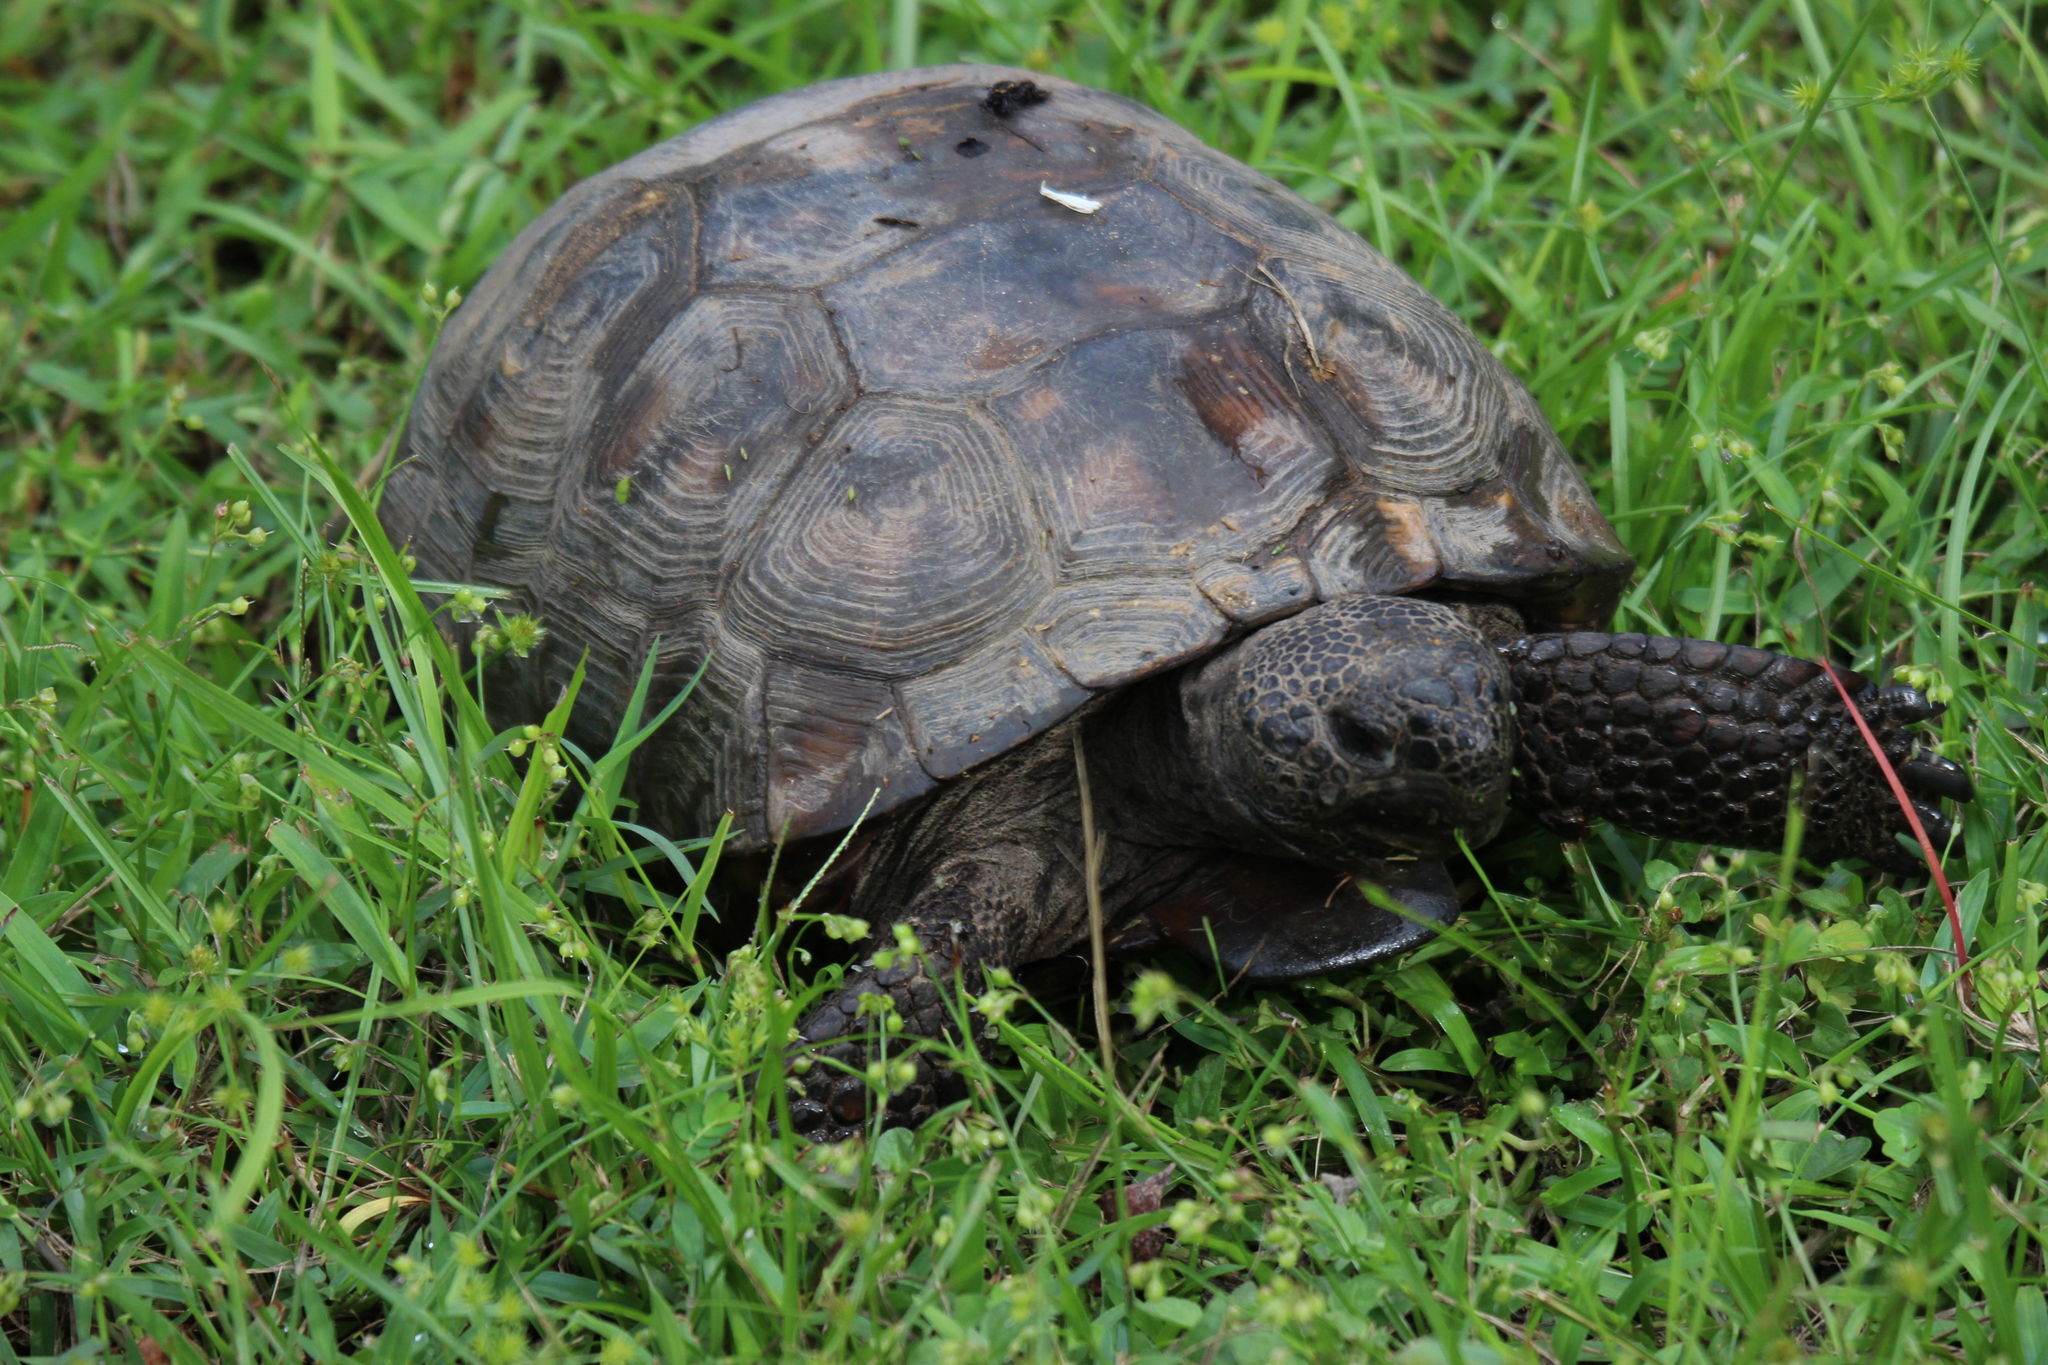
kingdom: Animalia
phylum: Chordata
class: Testudines
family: Testudinidae
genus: Gopherus
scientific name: Gopherus polyphemus
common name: Florida gopher tortoise
